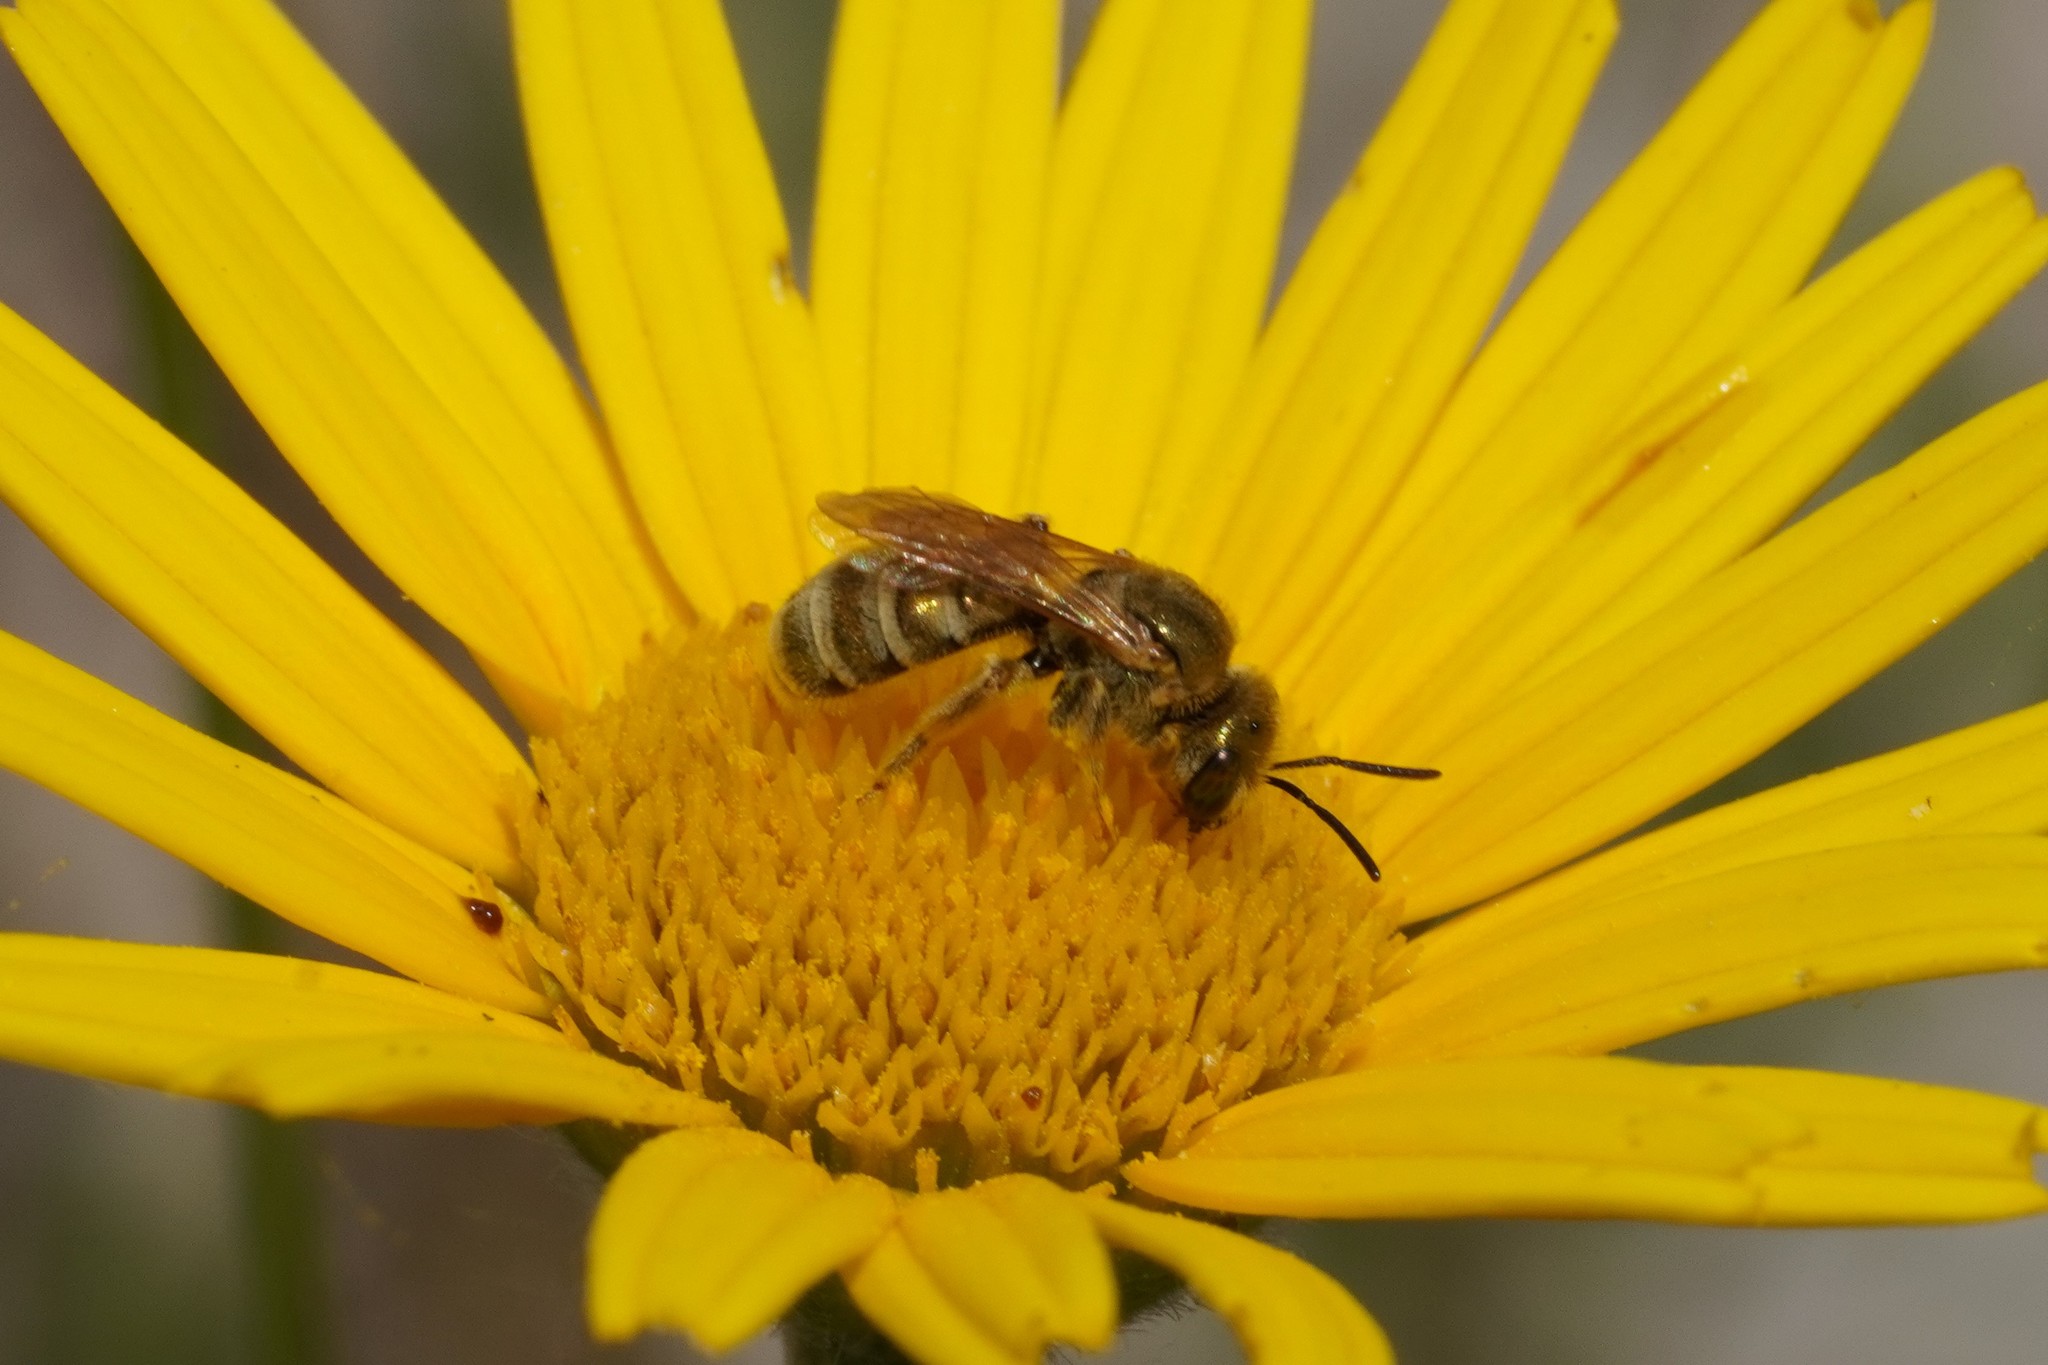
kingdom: Animalia
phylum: Arthropoda
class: Insecta
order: Hymenoptera
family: Halictidae
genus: Halictus
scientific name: Halictus subauratus
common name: Golden furrow bee
